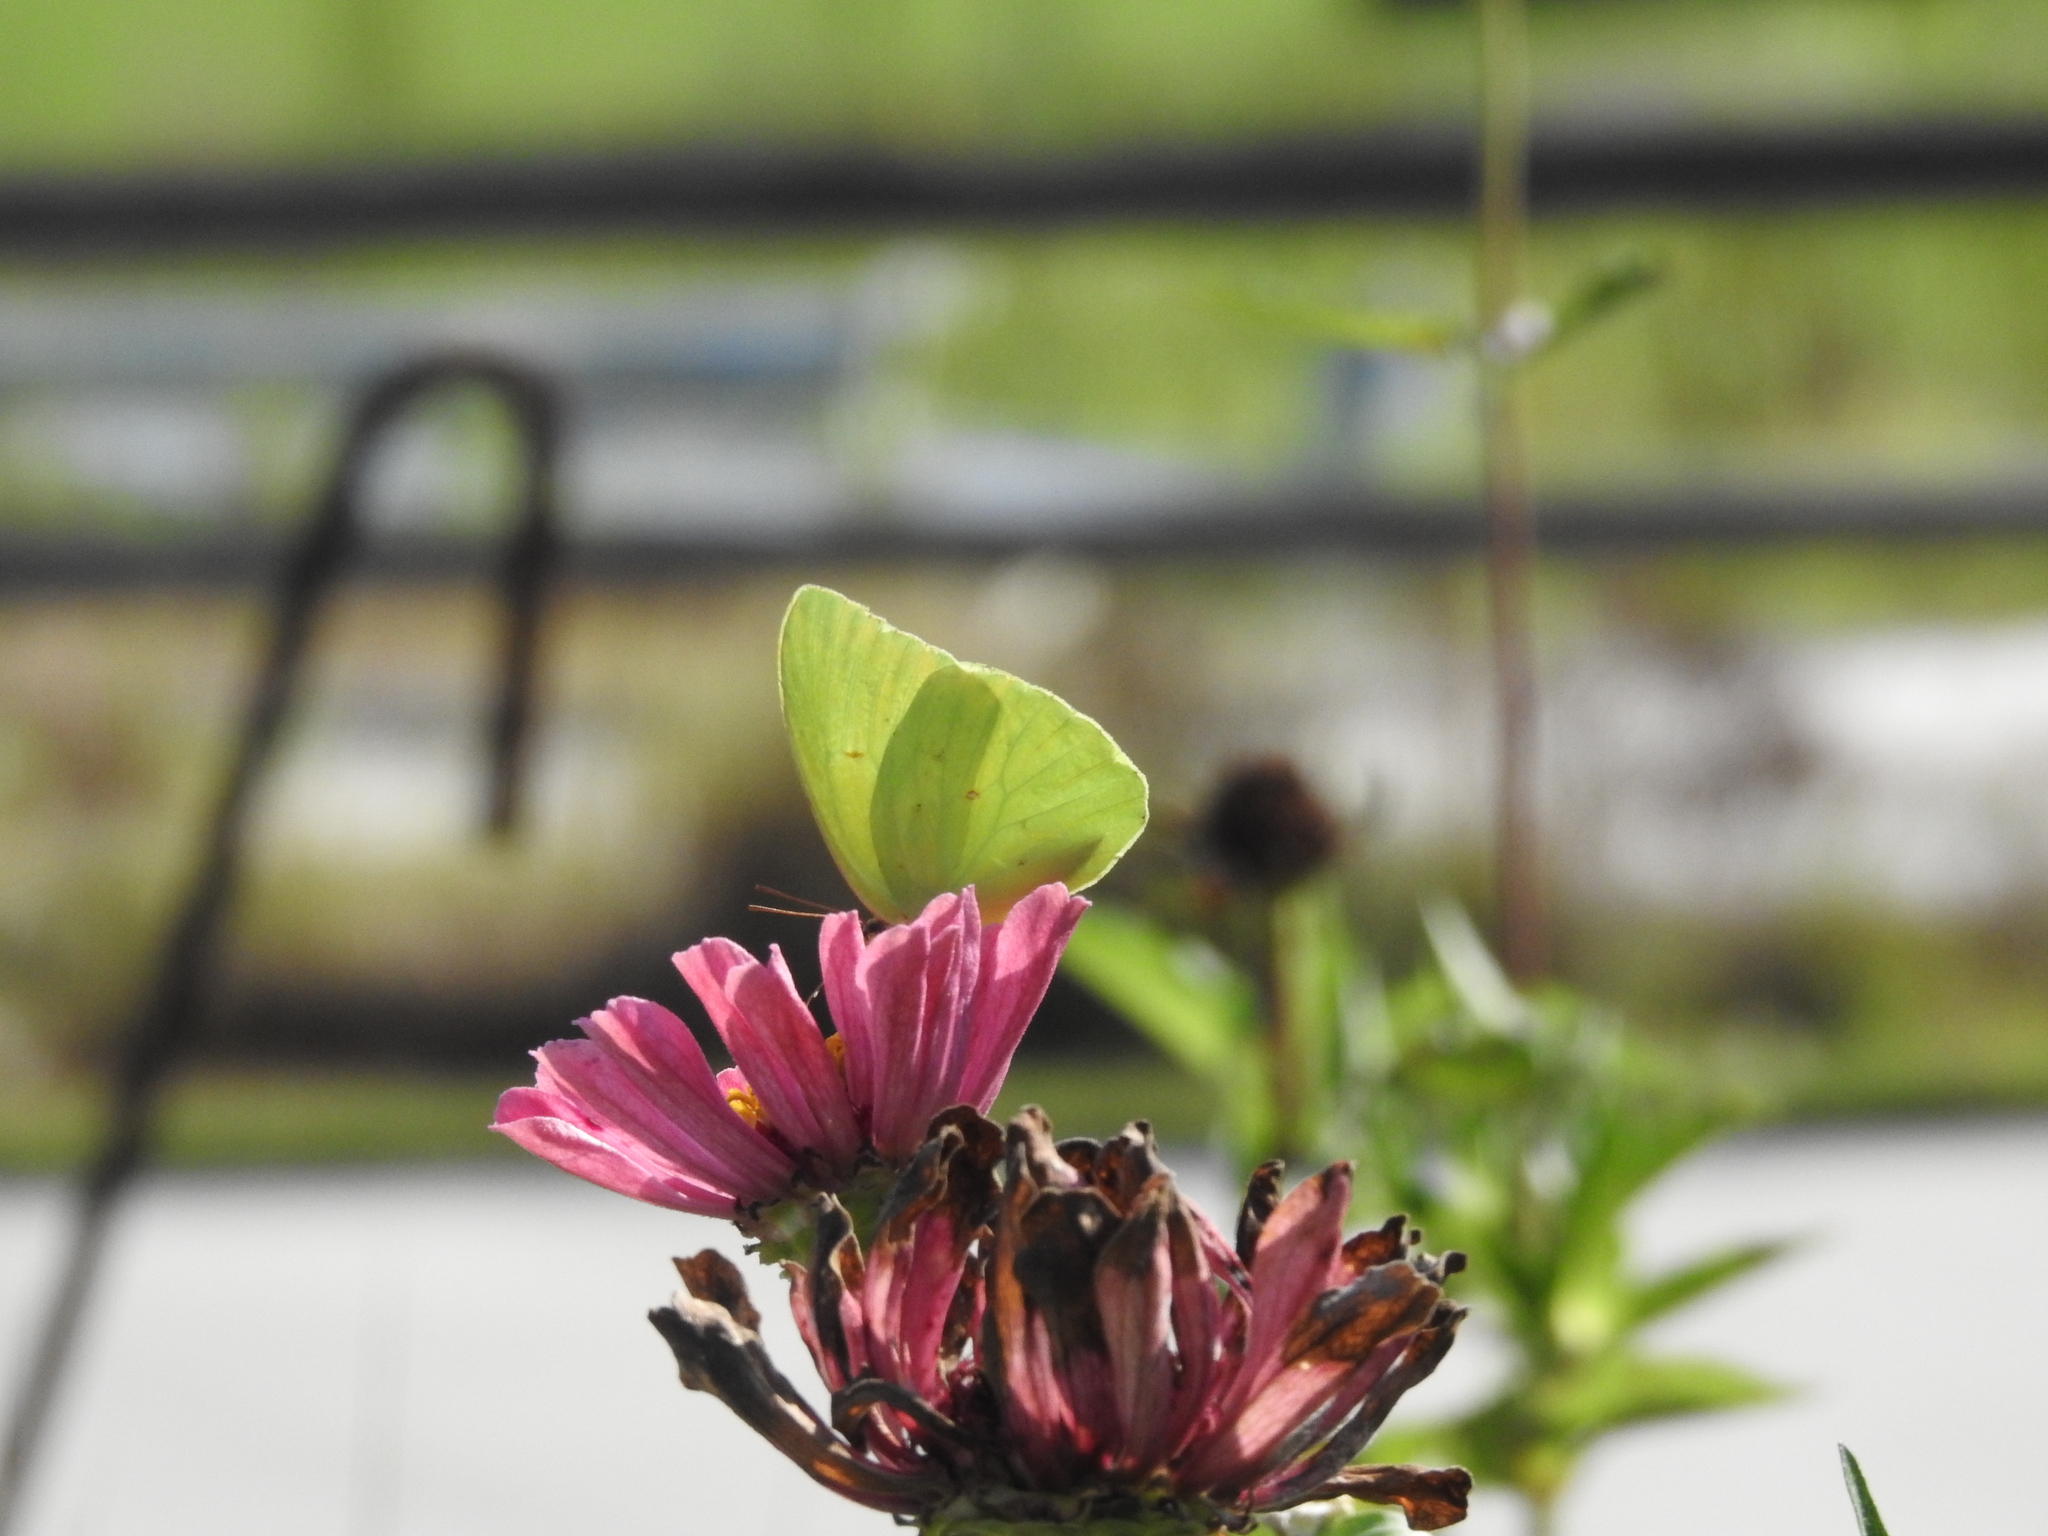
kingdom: Animalia
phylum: Arthropoda
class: Insecta
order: Lepidoptera
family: Pieridae
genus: Phoebis
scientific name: Phoebis sennae
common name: Cloudless sulphur
